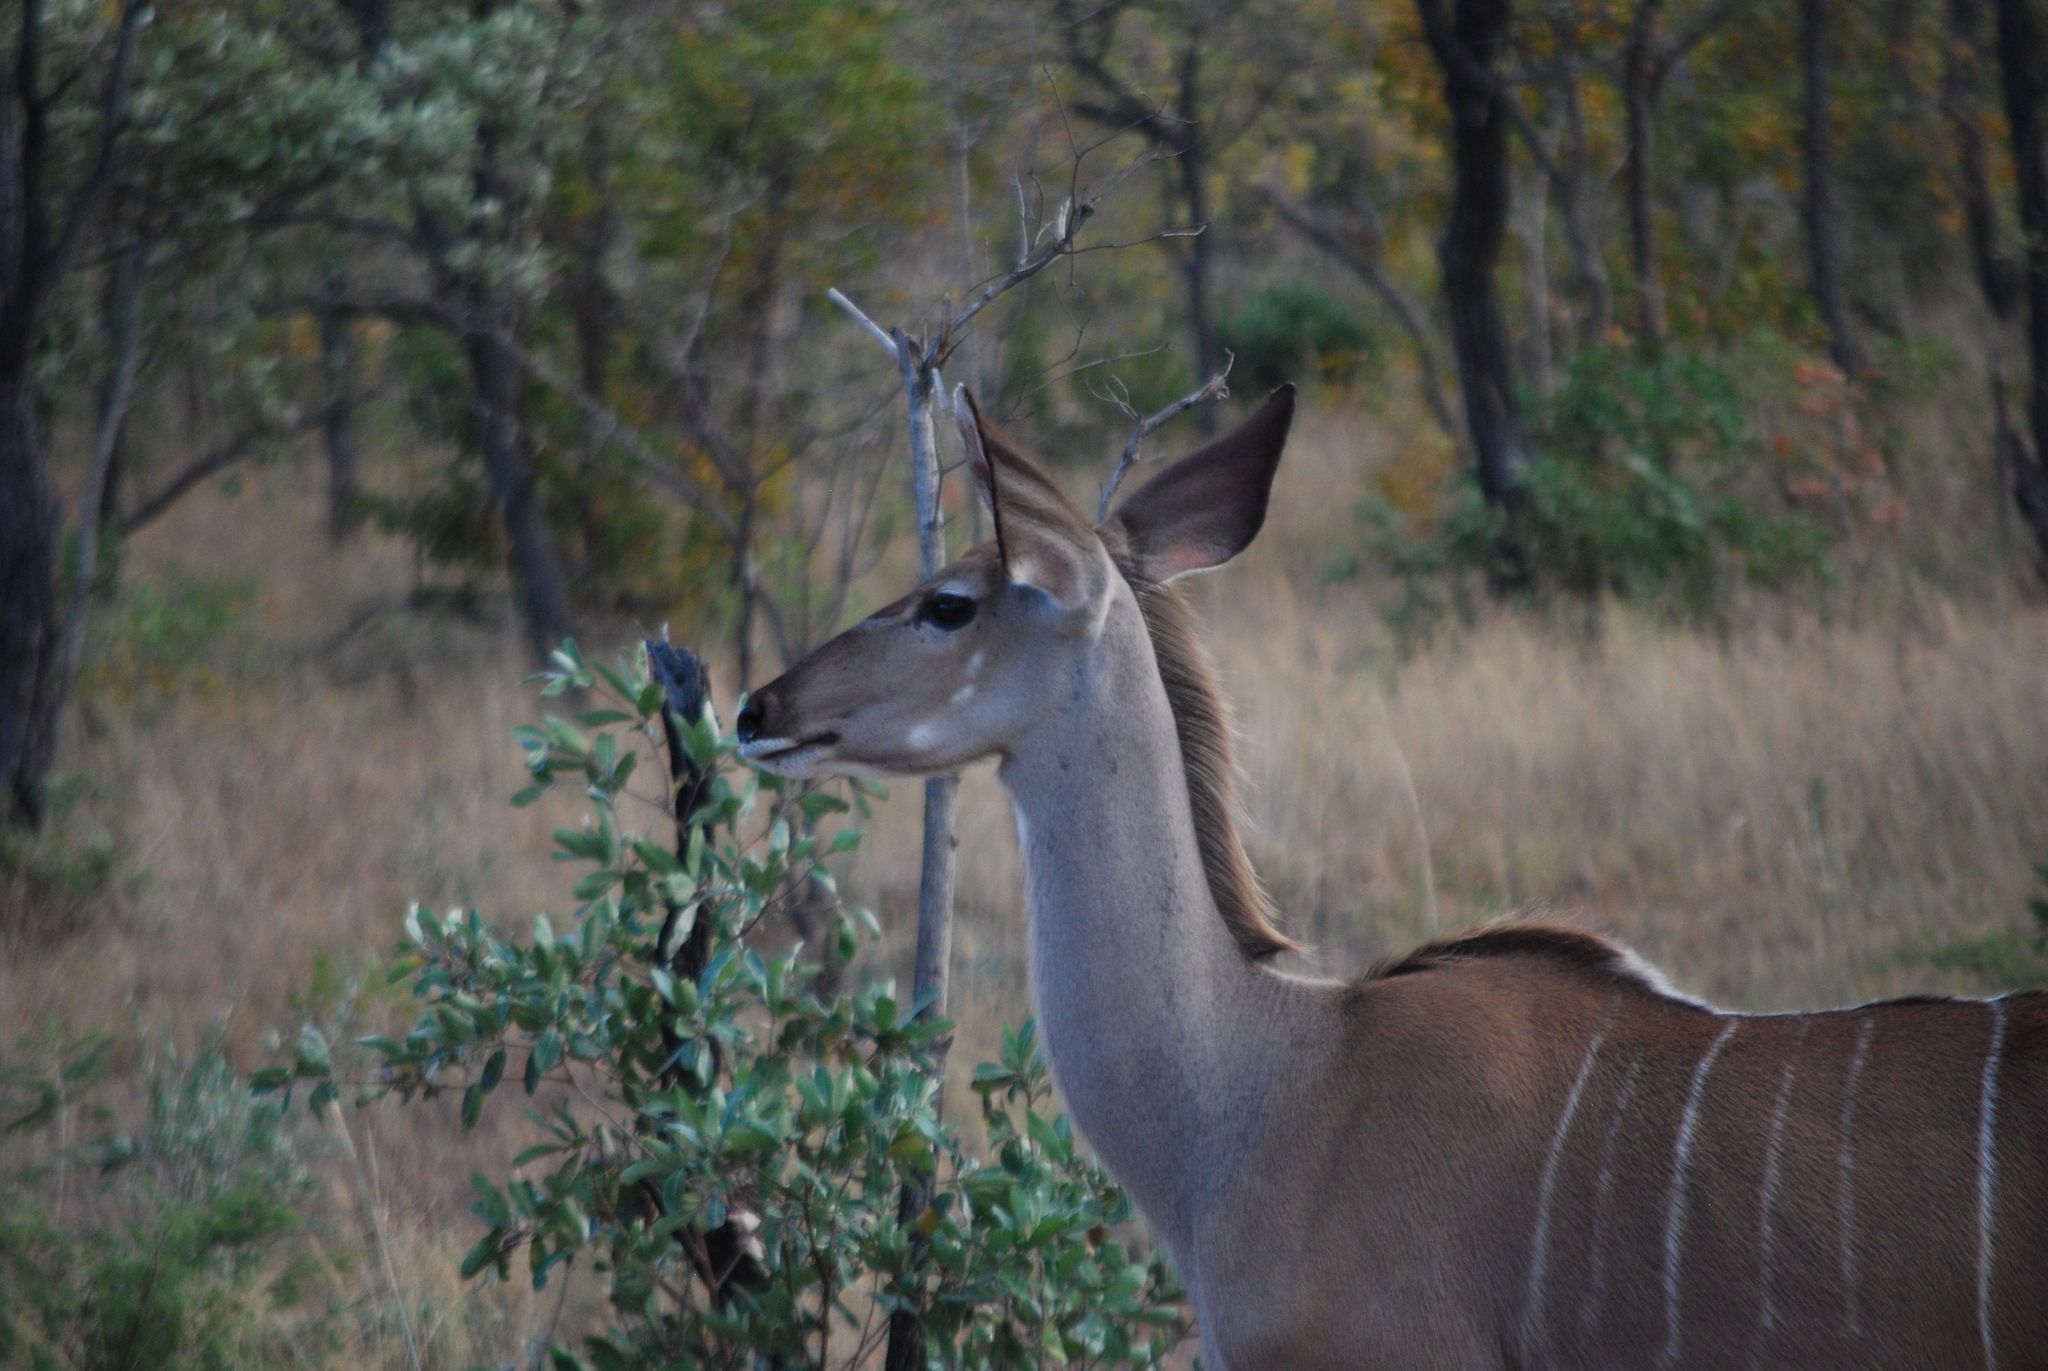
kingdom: Animalia
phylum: Chordata
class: Mammalia
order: Artiodactyla
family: Bovidae
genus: Tragelaphus
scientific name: Tragelaphus strepsiceros
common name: Greater kudu
